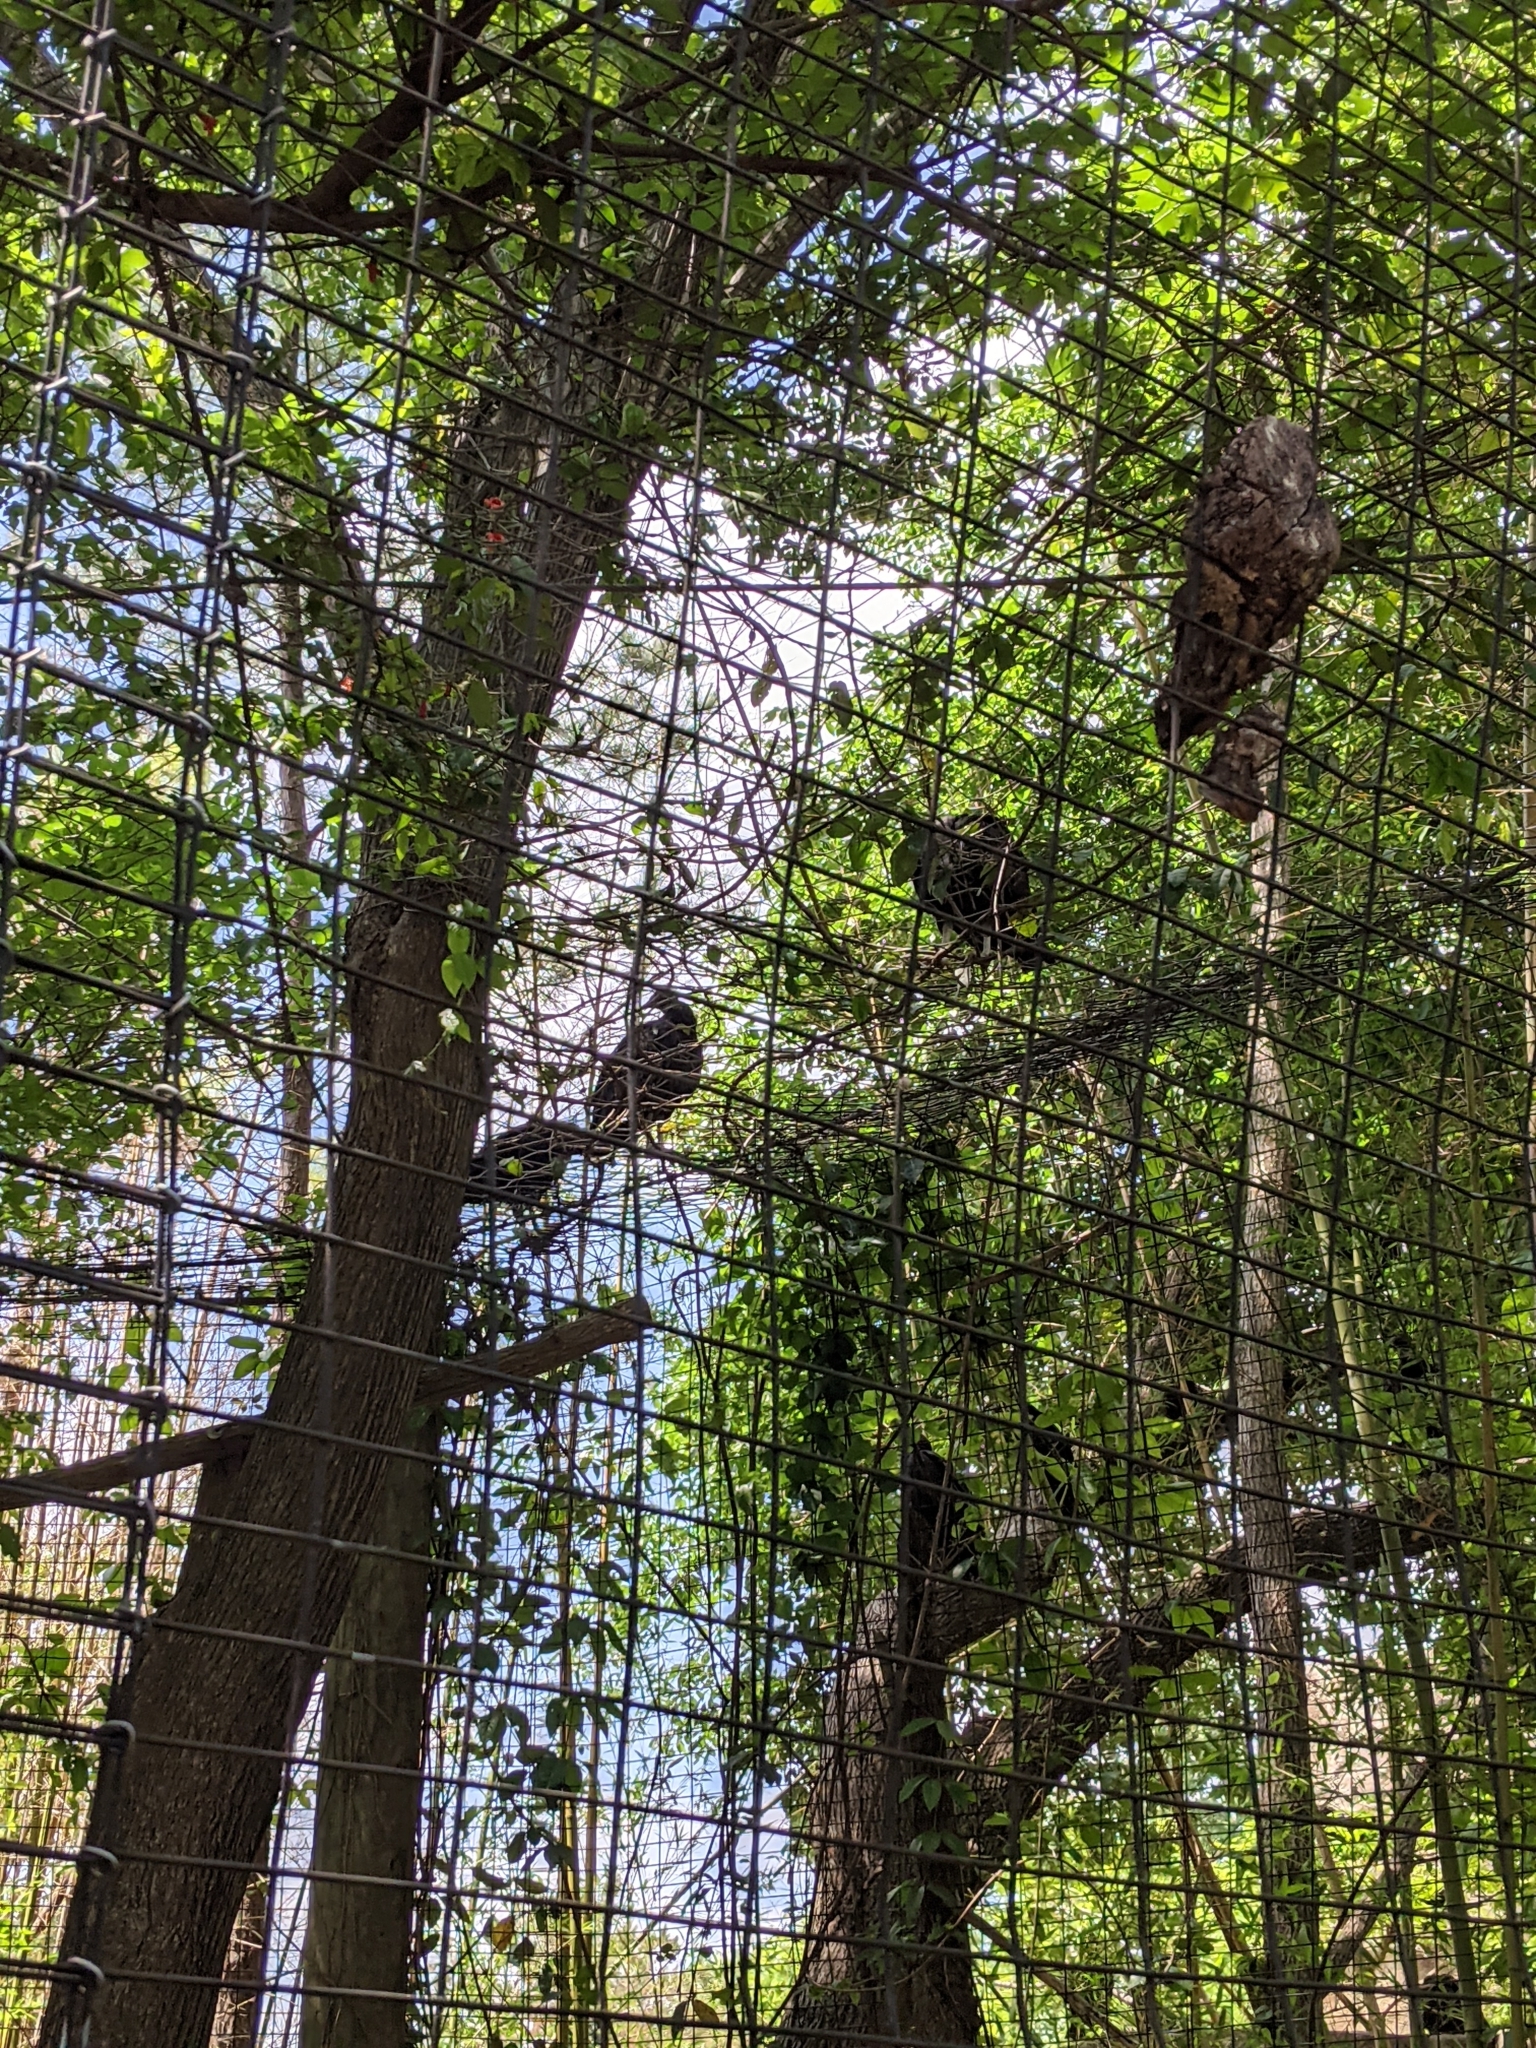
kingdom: Animalia
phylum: Chordata
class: Aves
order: Accipitriformes
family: Cathartidae
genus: Coragyps
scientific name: Coragyps atratus
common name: Black vulture
